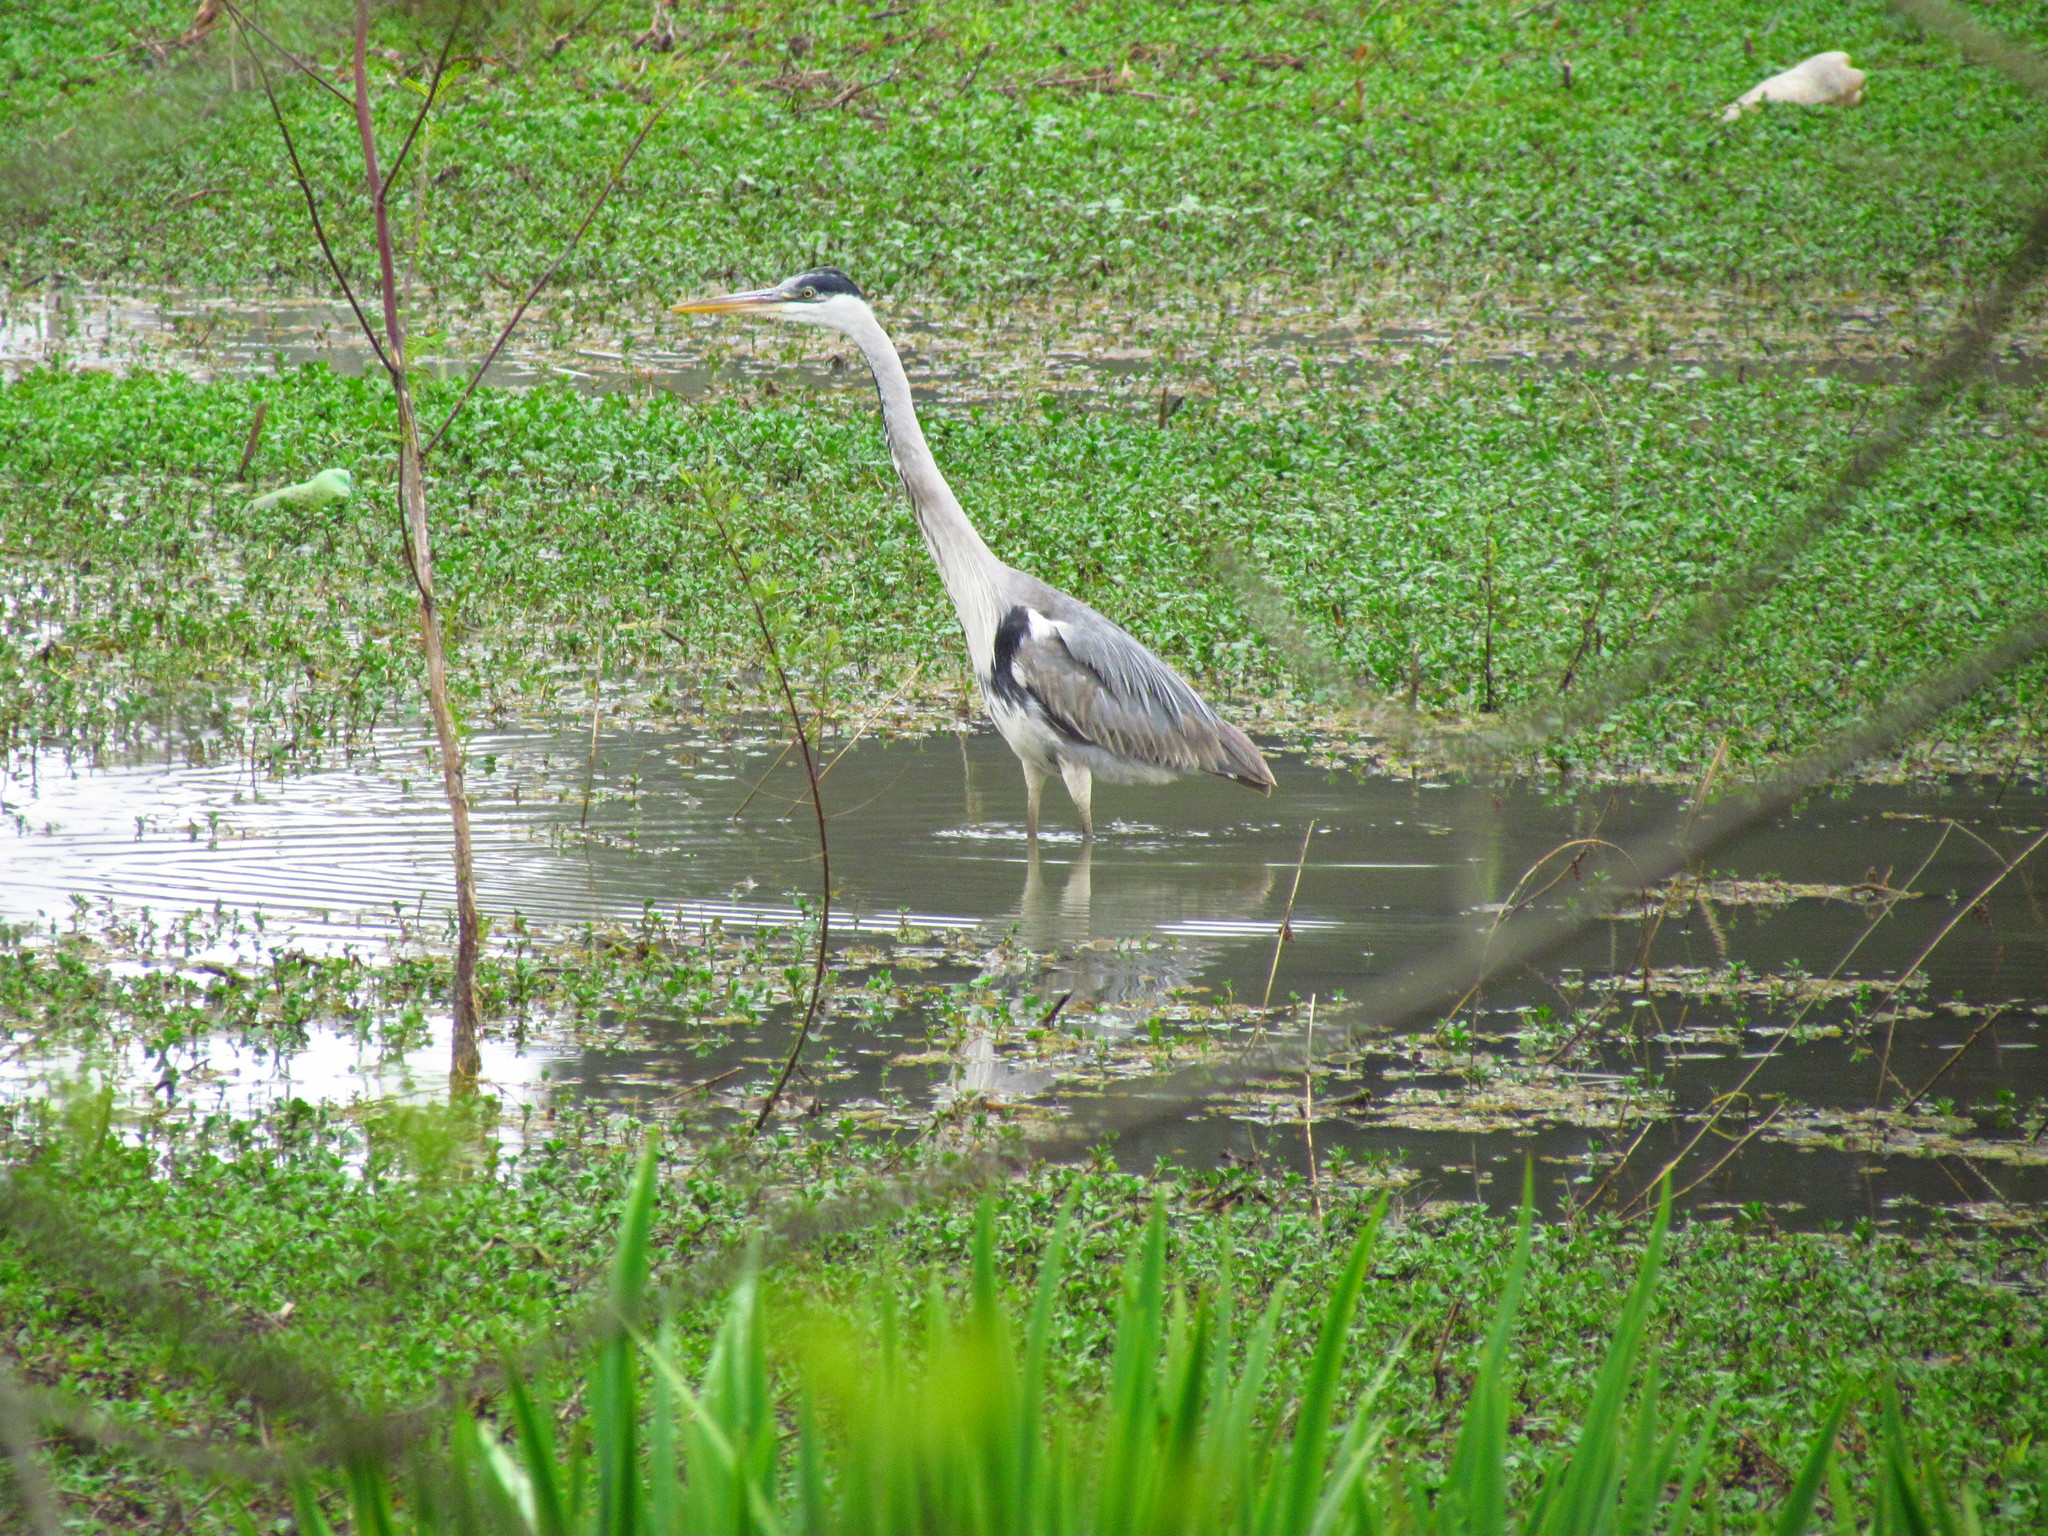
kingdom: Animalia
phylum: Chordata
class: Aves
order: Pelecaniformes
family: Ardeidae
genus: Ardea
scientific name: Ardea cocoi
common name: Cocoi heron
